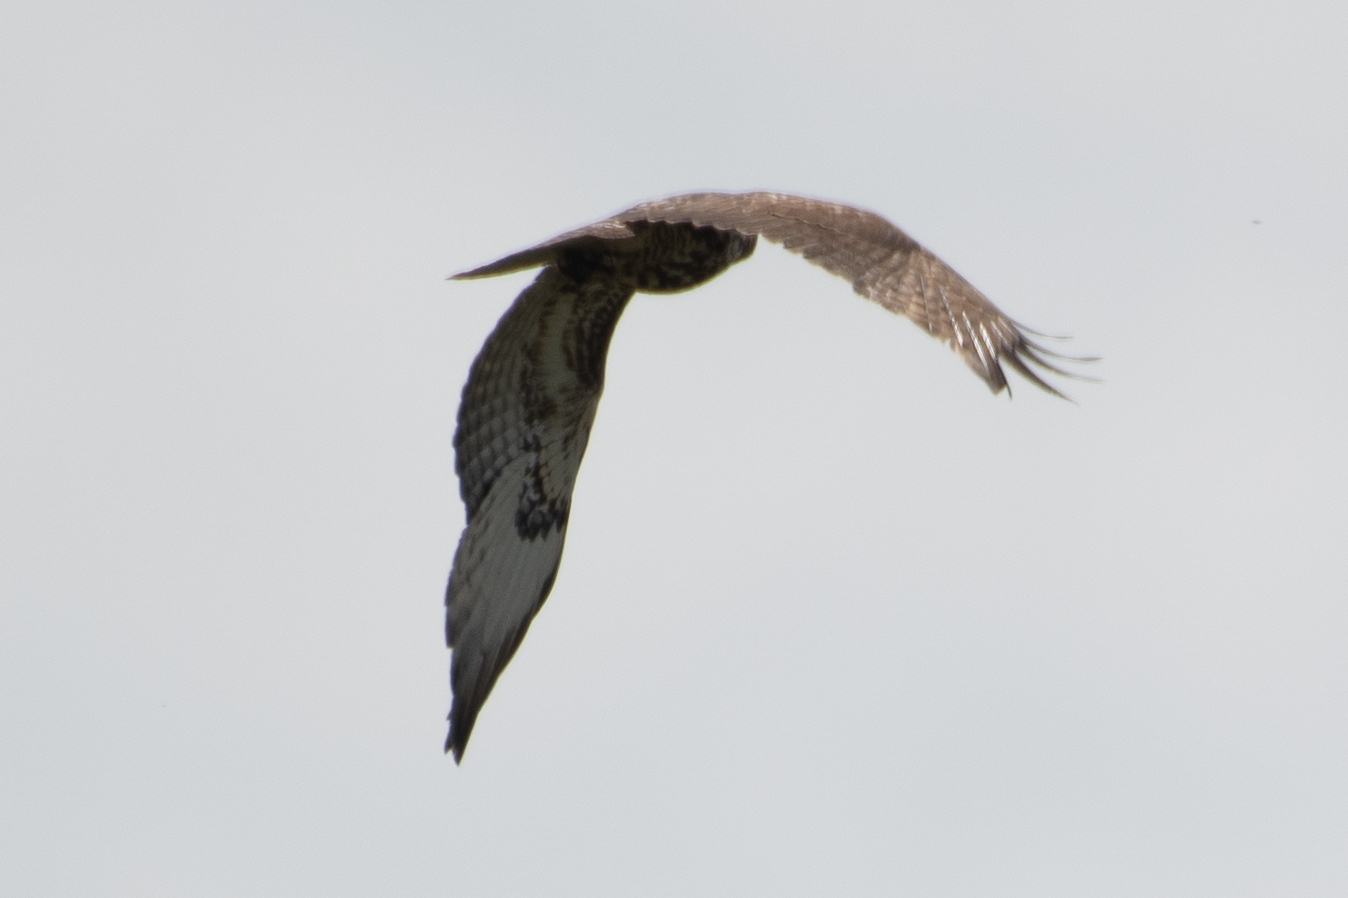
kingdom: Animalia
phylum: Chordata
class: Aves
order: Accipitriformes
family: Accipitridae
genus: Buteo
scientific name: Buteo jamaicensis
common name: Red-tailed hawk
